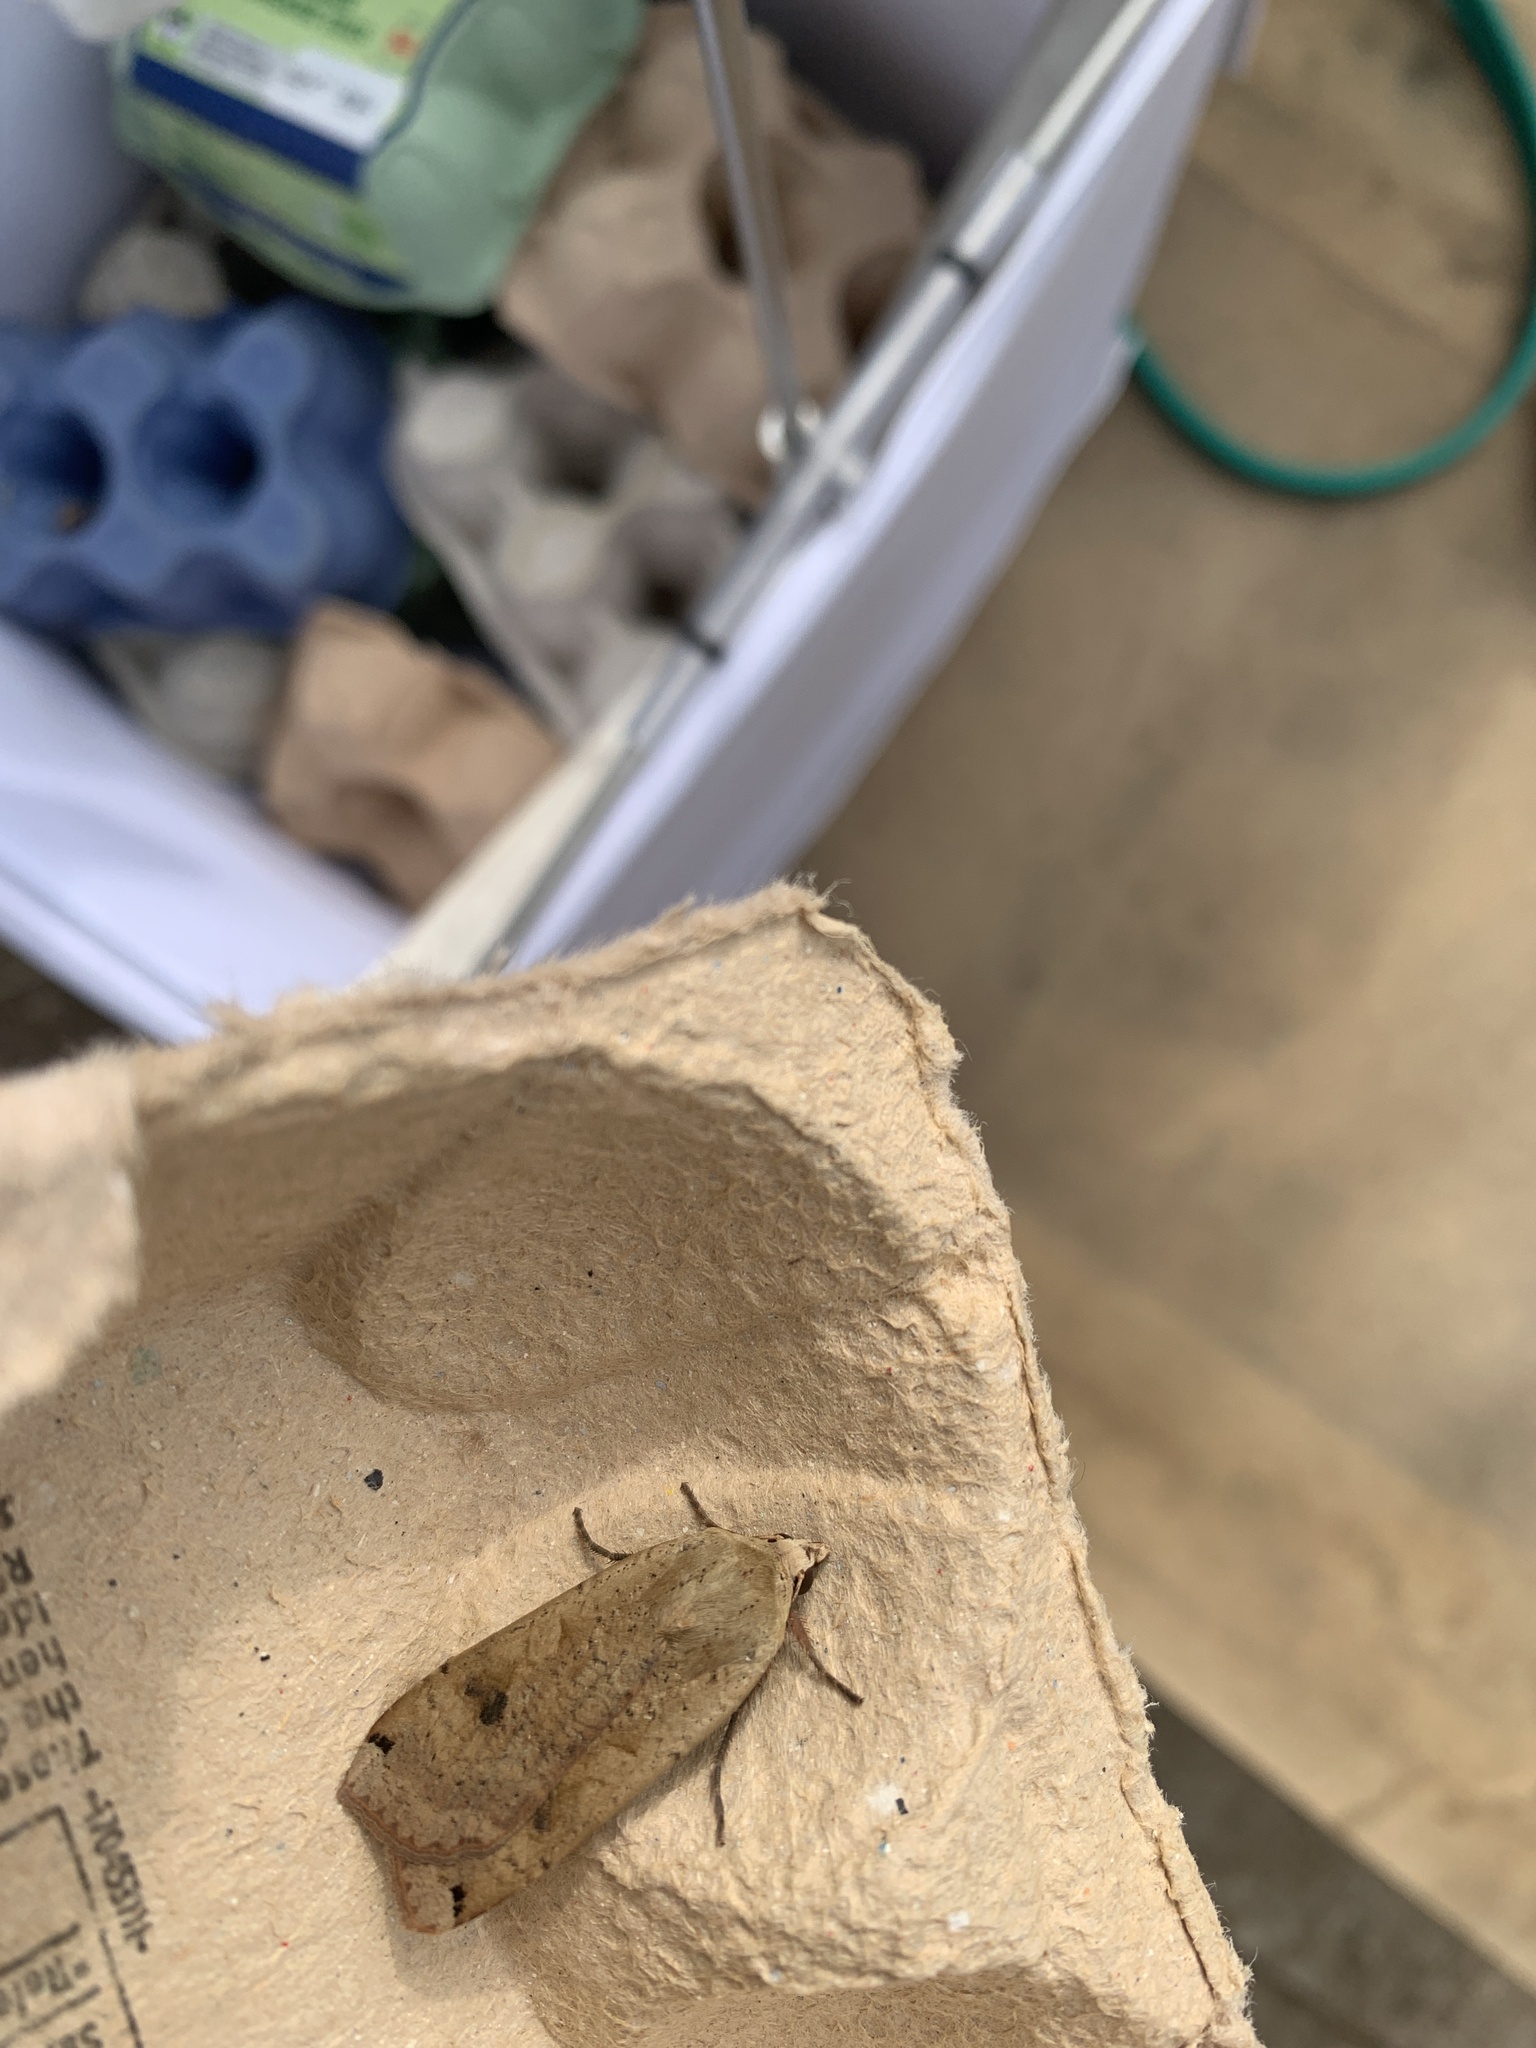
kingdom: Animalia
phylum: Arthropoda
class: Insecta
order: Lepidoptera
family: Noctuidae
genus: Noctua
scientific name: Noctua pronuba
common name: Large yellow underwing
